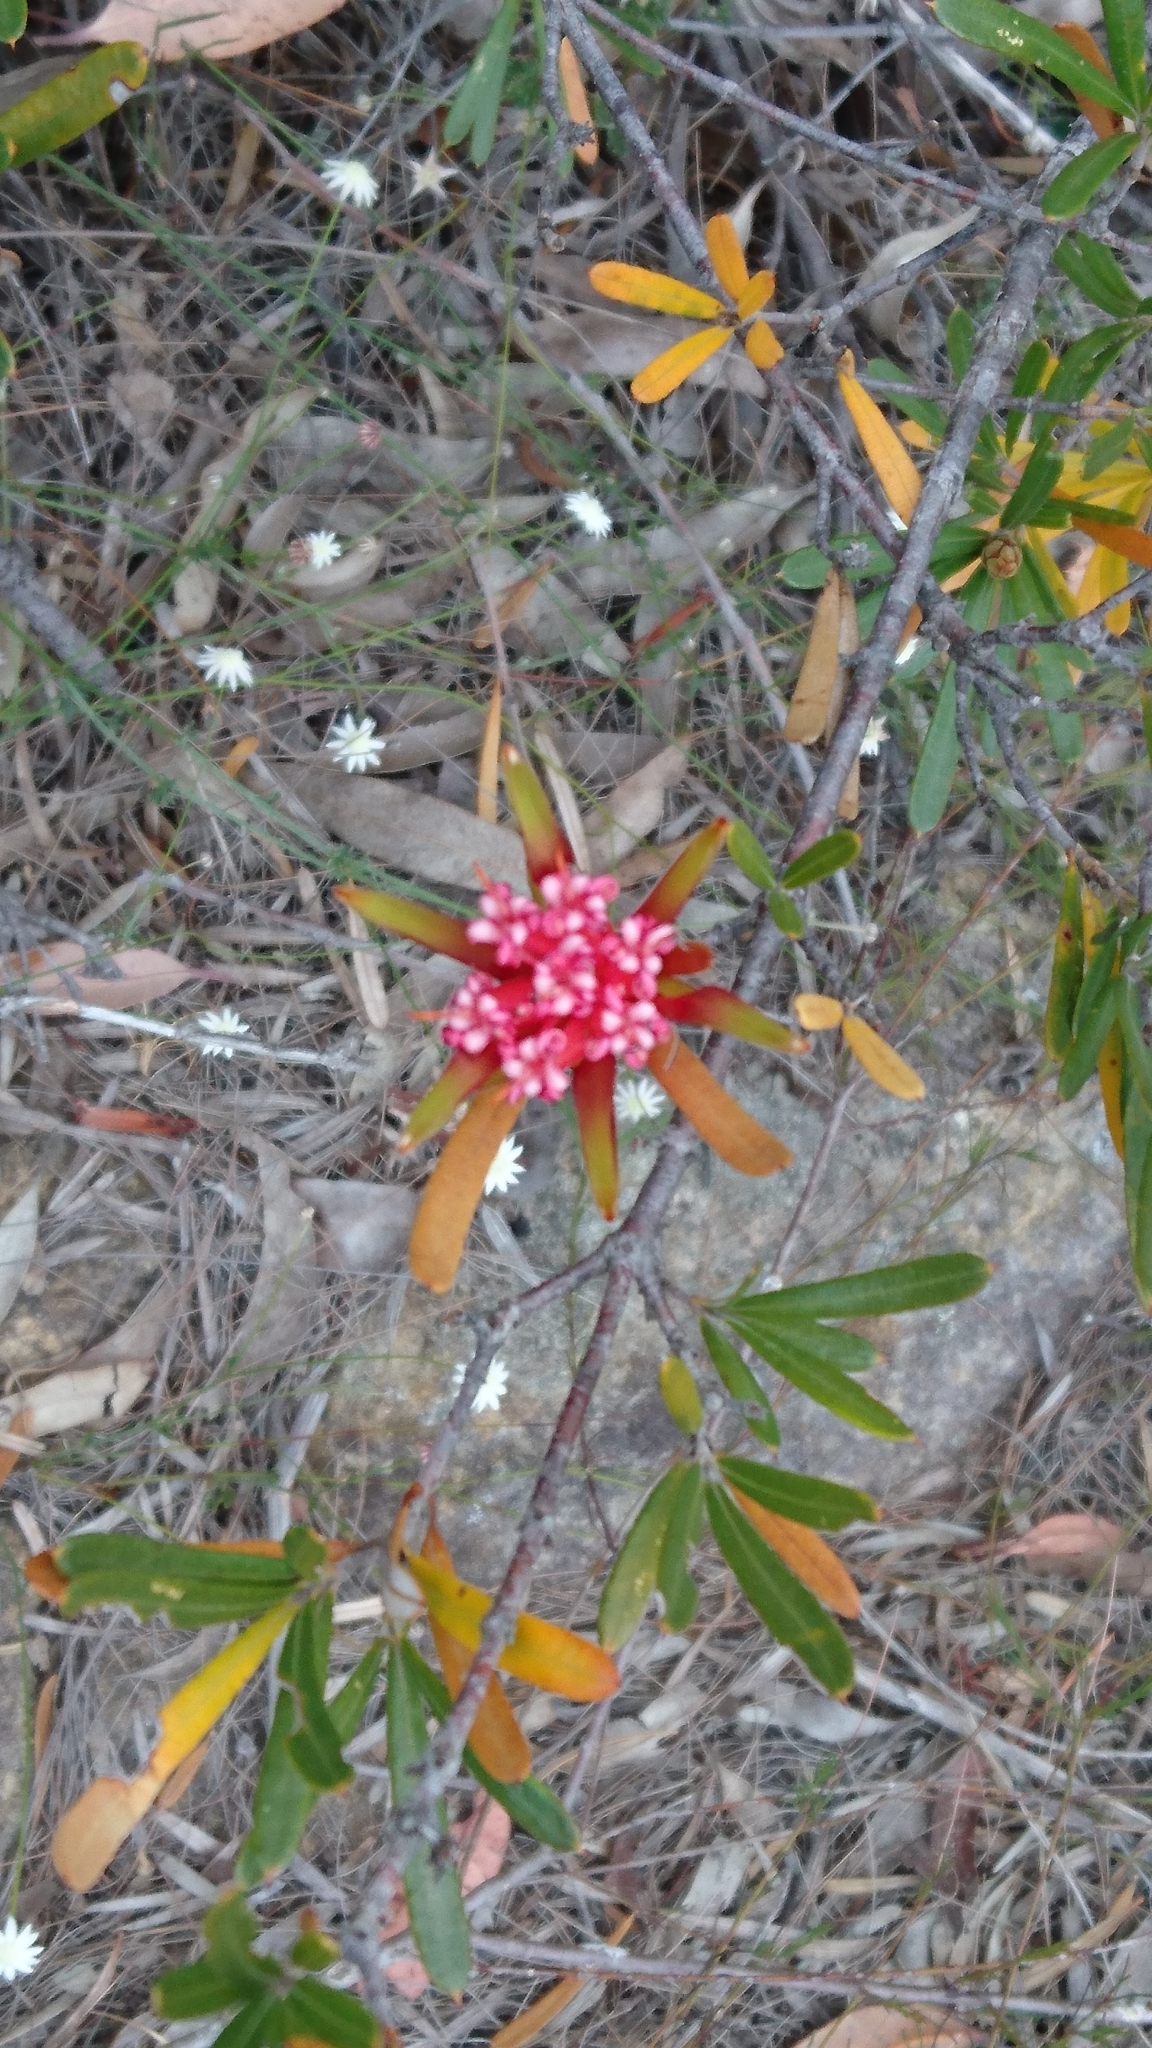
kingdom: Plantae
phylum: Tracheophyta
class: Magnoliopsida
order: Proteales
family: Proteaceae
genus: Lambertia
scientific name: Lambertia formosa
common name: Mountain-devil
